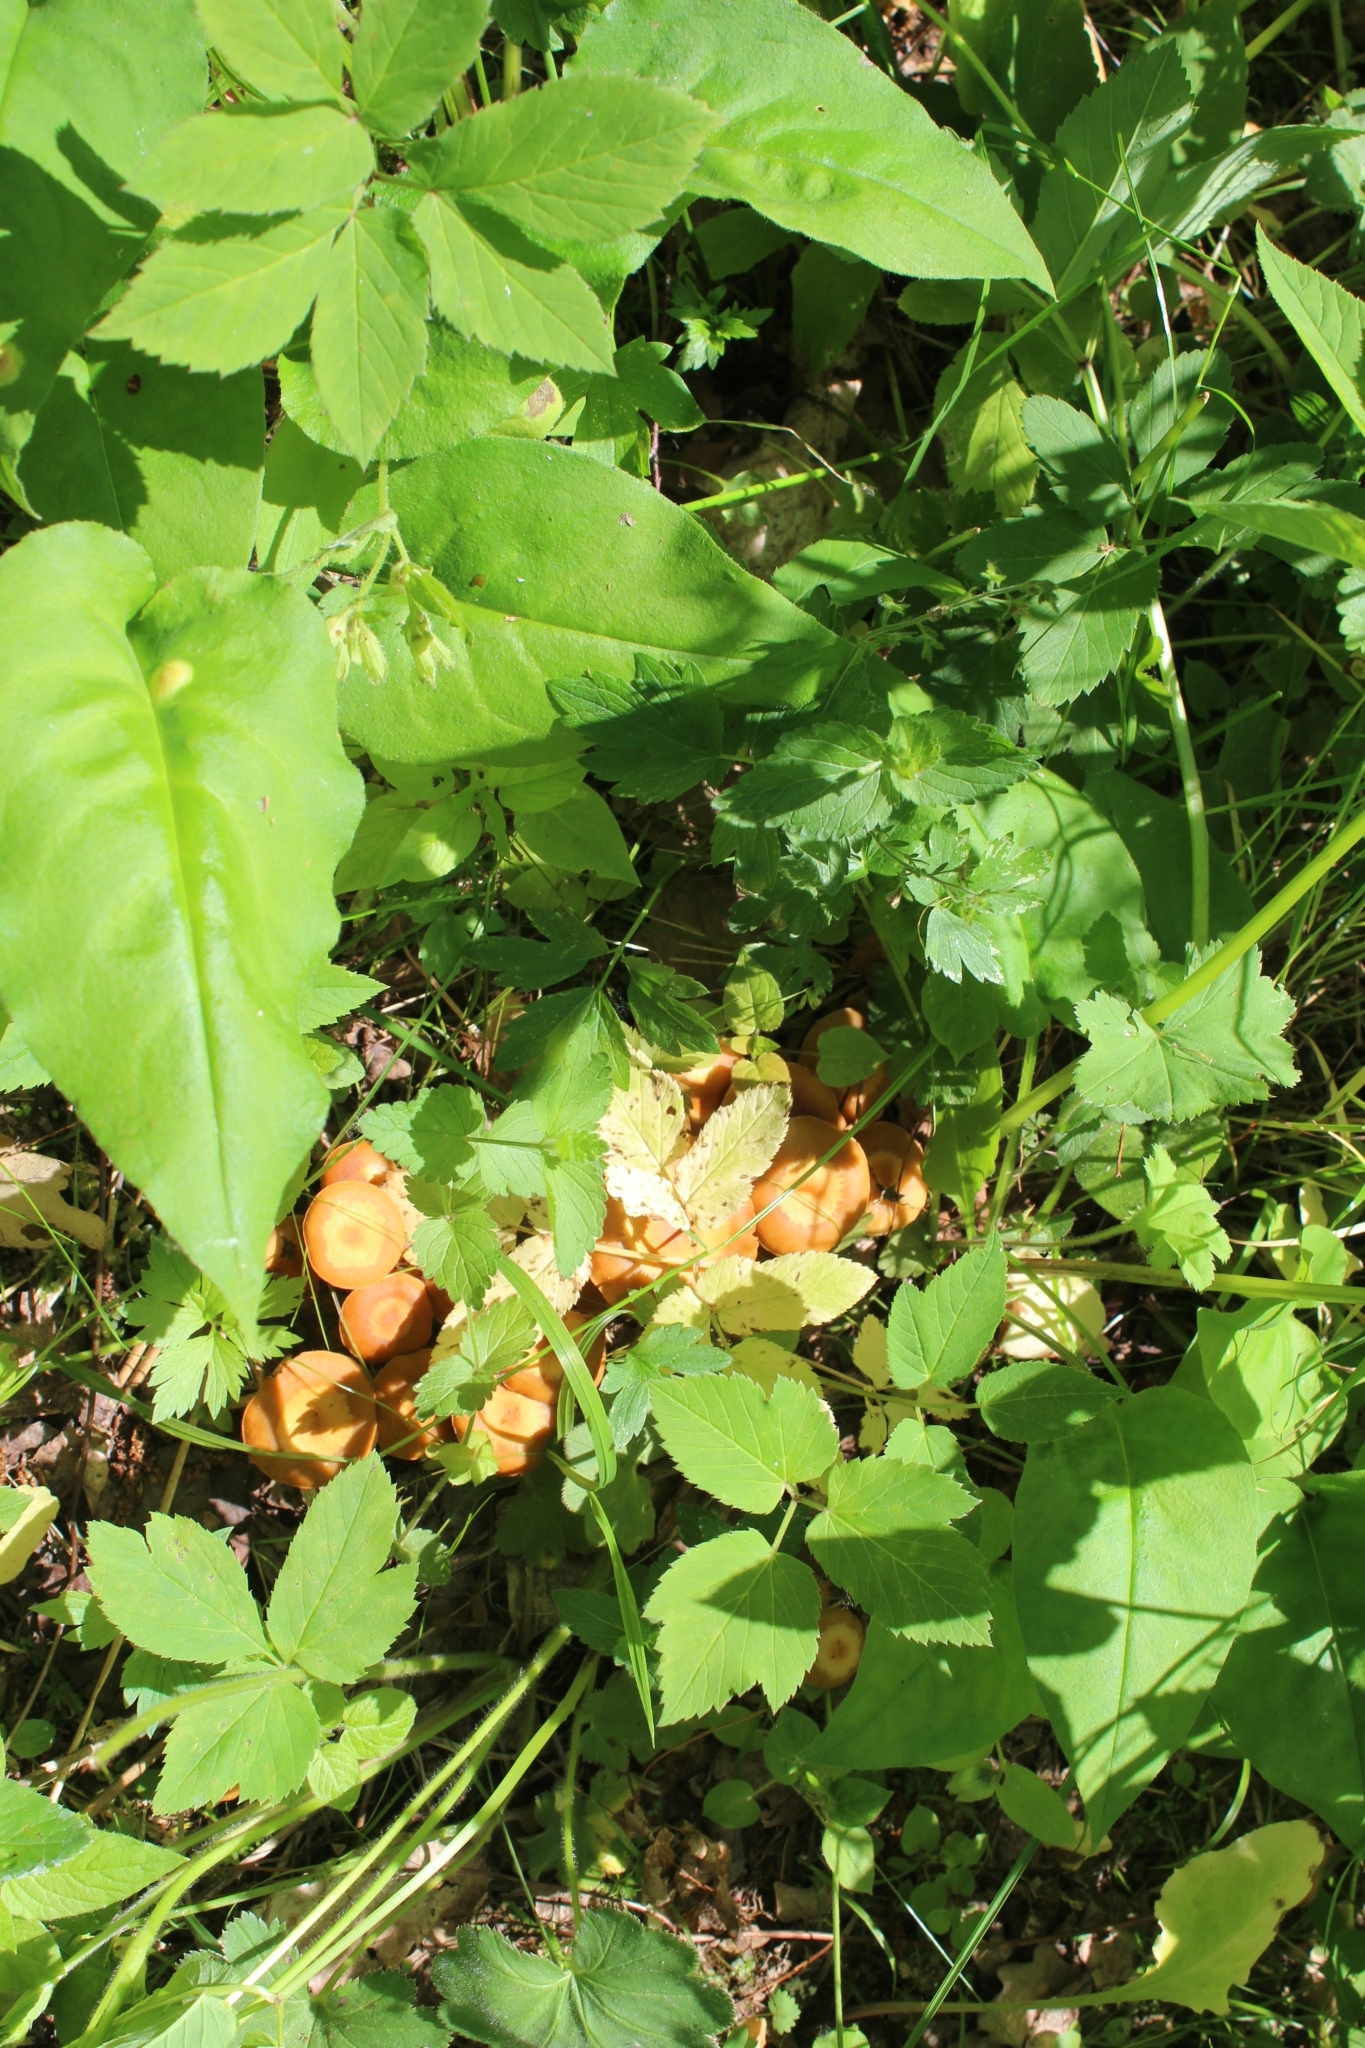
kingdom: Fungi
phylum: Basidiomycota
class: Agaricomycetes
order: Agaricales
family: Strophariaceae
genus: Kuehneromyces
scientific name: Kuehneromyces mutabilis
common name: Sheathed woodtuft
